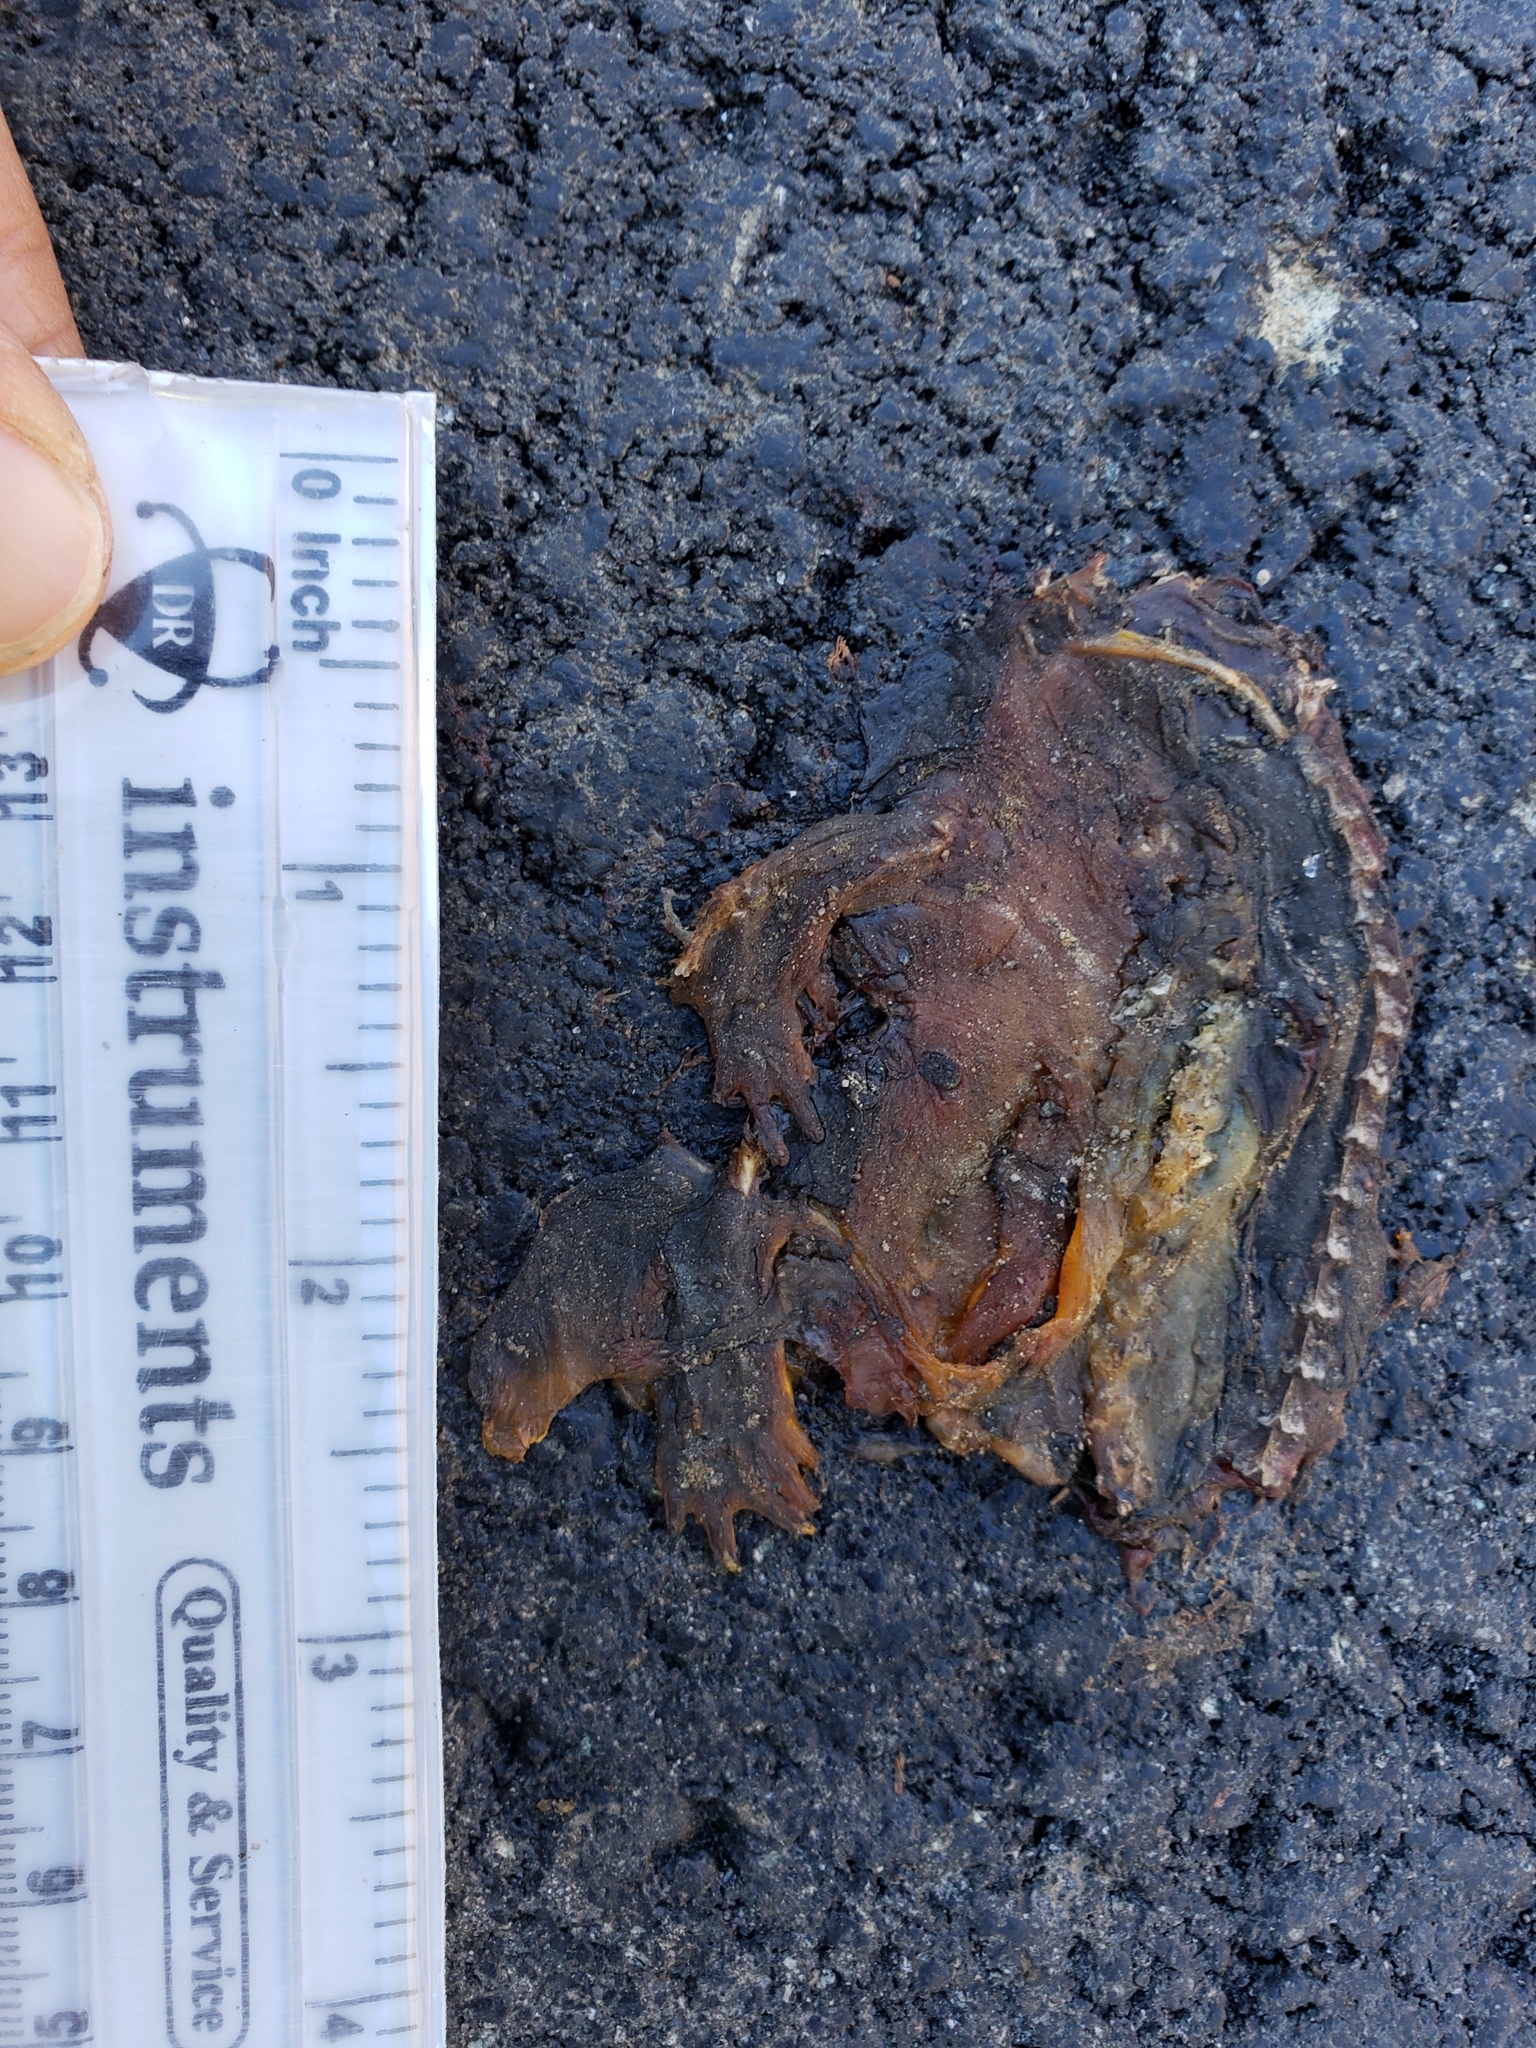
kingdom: Animalia
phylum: Chordata
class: Amphibia
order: Caudata
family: Salamandridae
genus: Taricha
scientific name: Taricha
